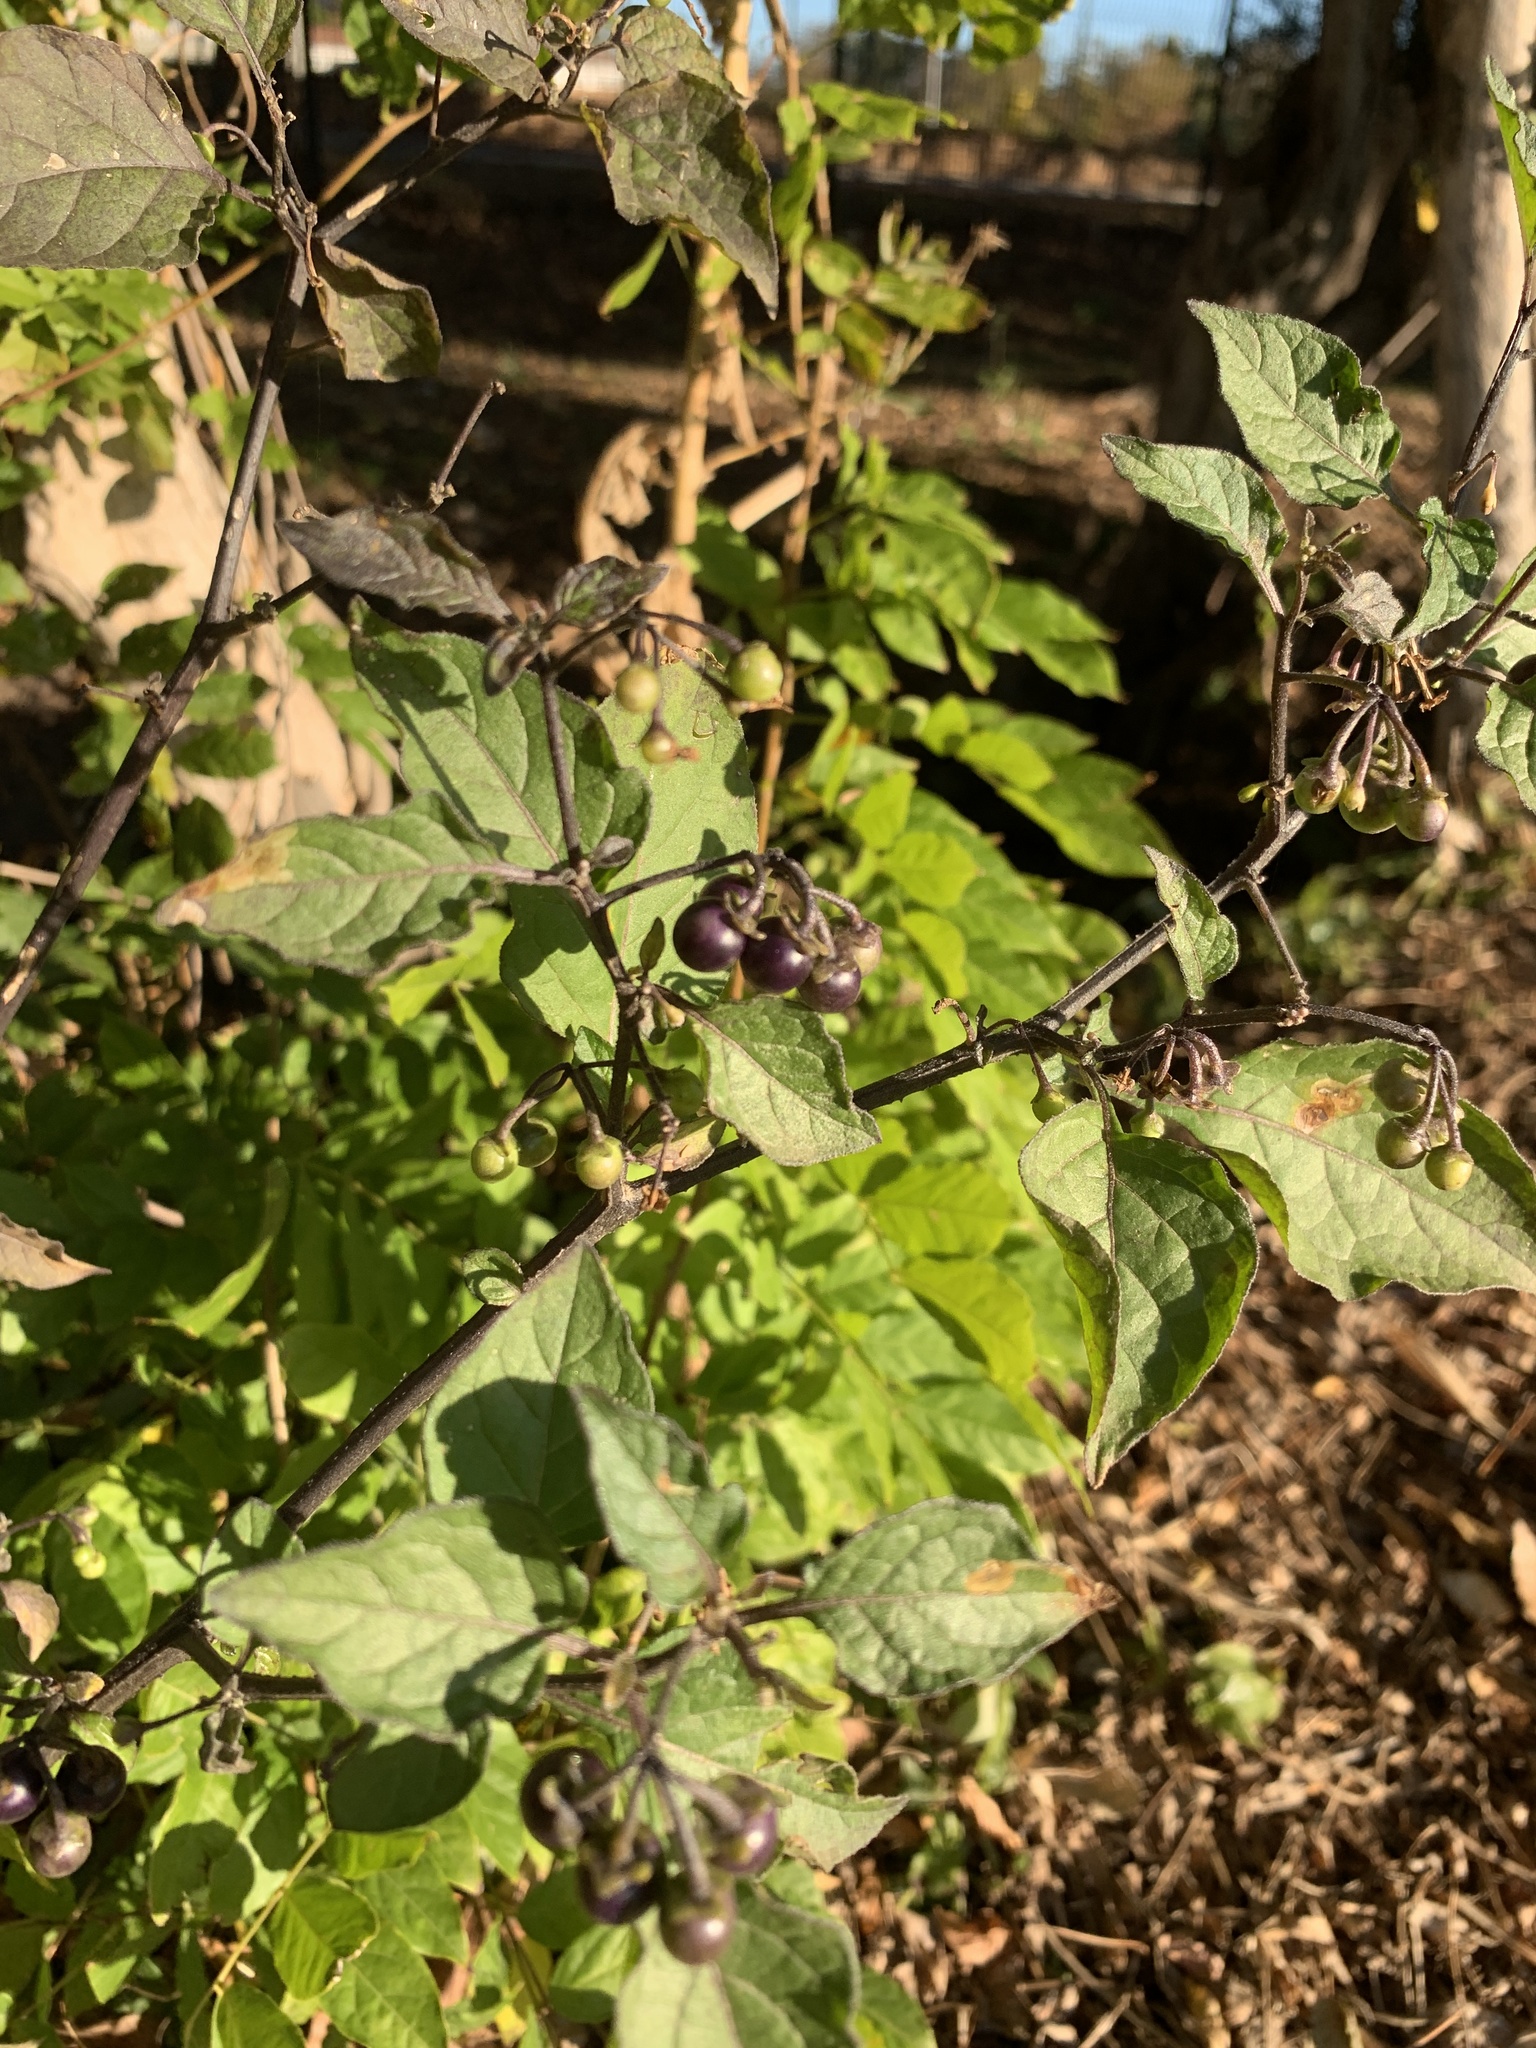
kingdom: Plantae
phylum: Tracheophyta
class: Magnoliopsida
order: Solanales
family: Solanaceae
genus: Solanum
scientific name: Solanum nigrum
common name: Black nightshade
